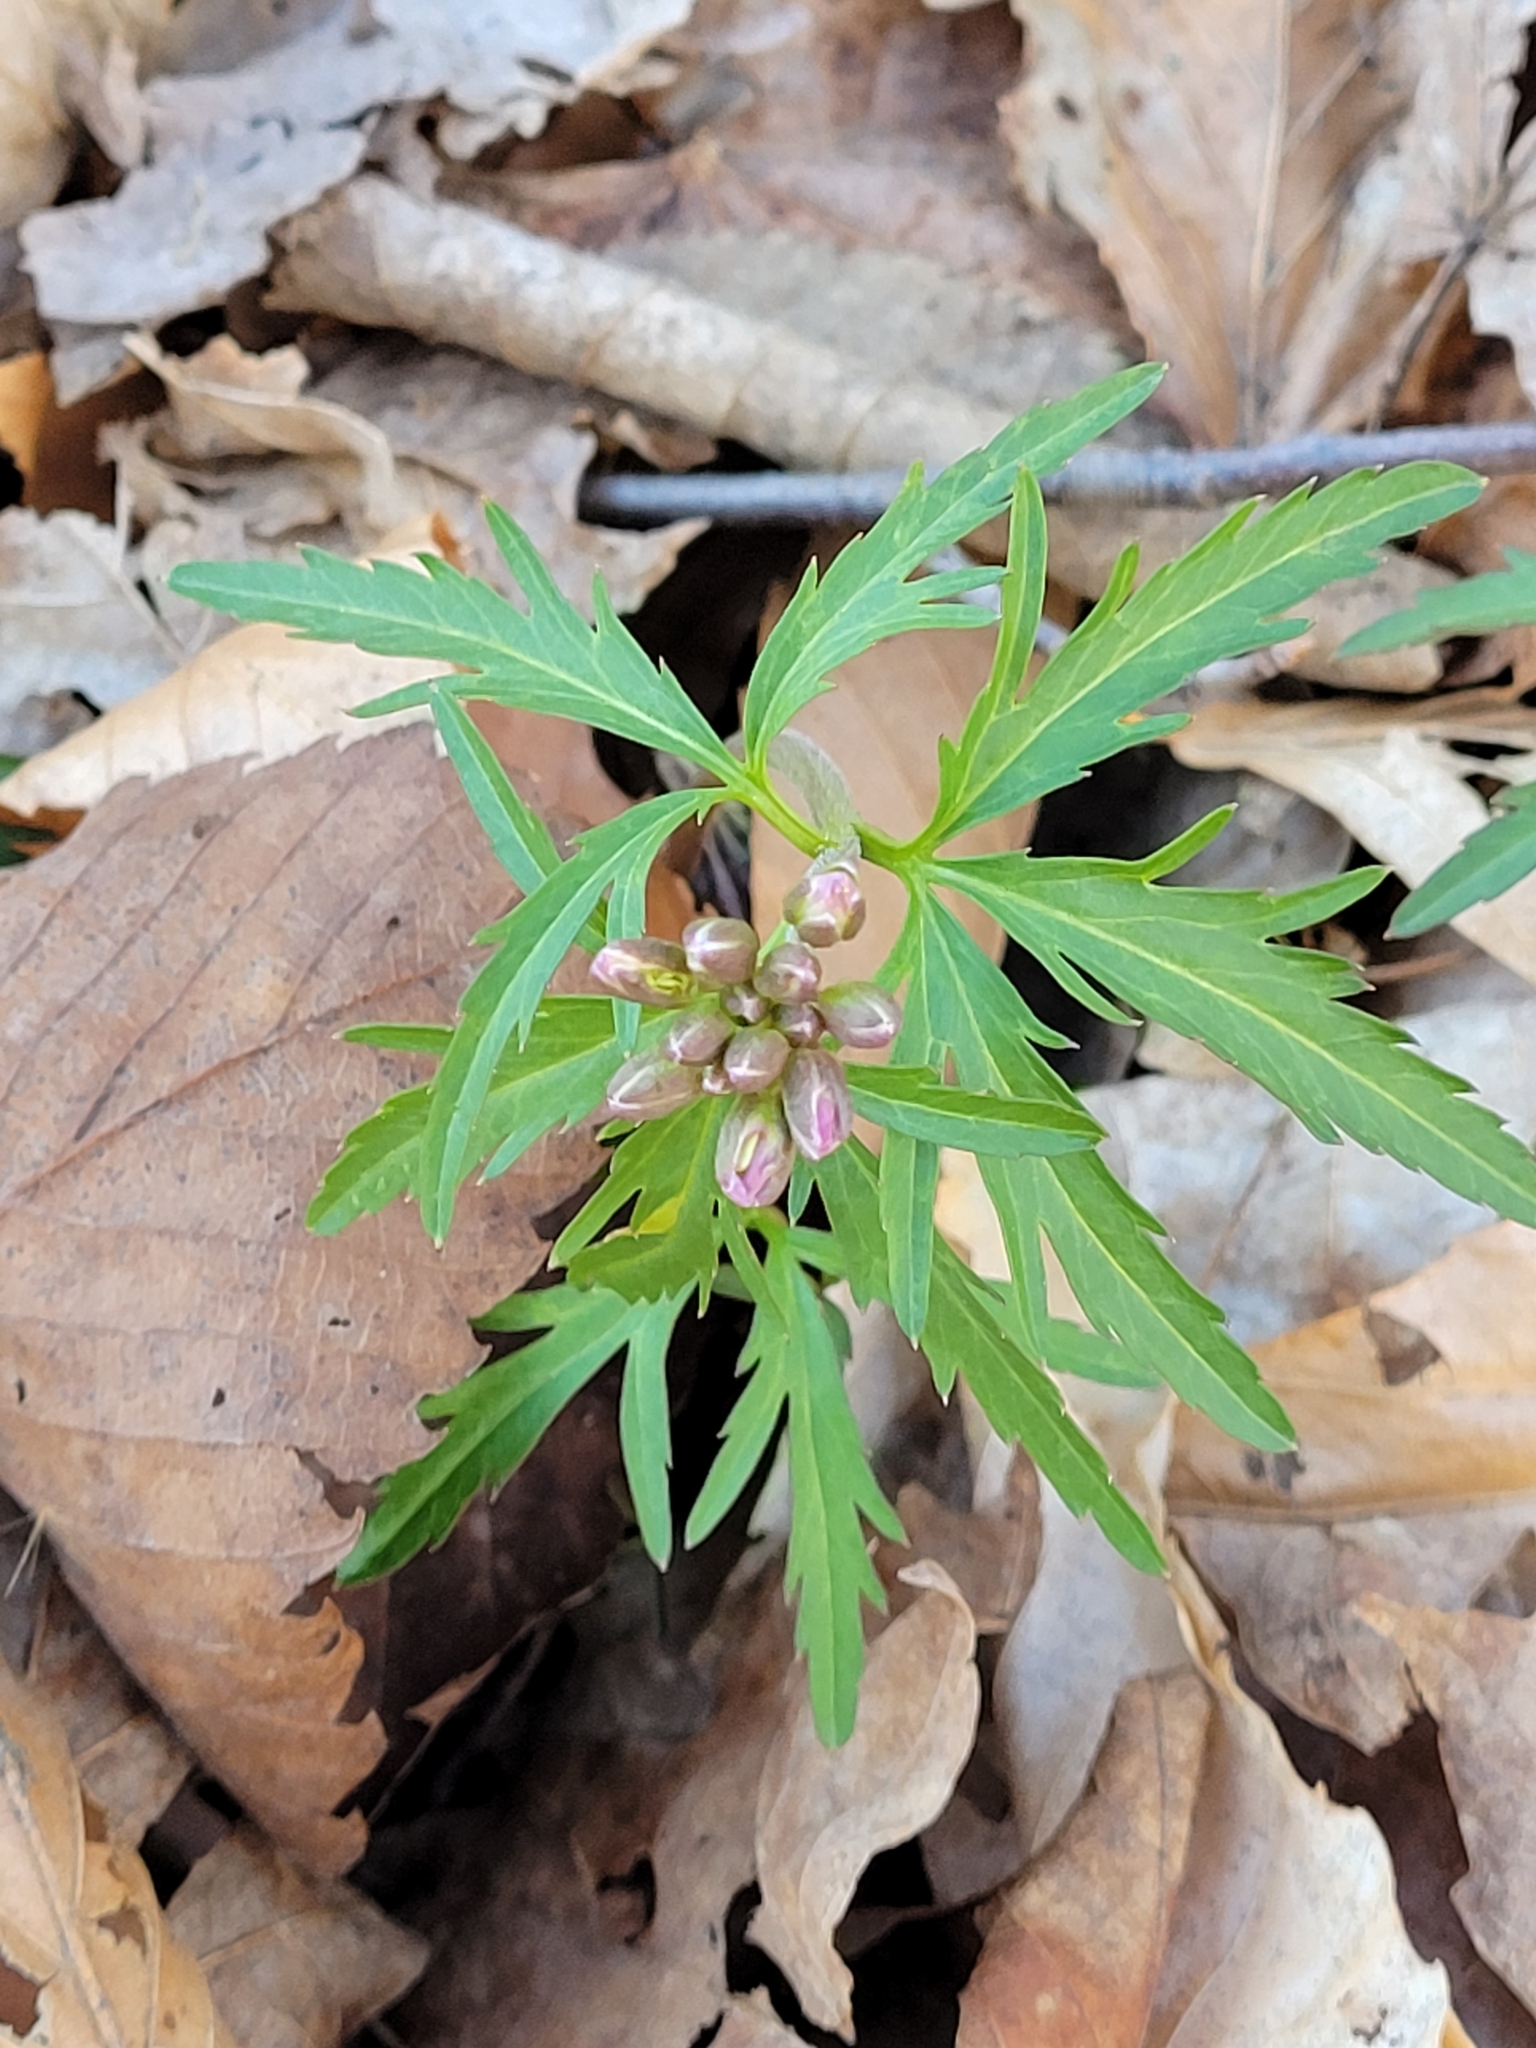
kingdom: Plantae
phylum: Tracheophyta
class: Magnoliopsida
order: Brassicales
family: Brassicaceae
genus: Cardamine
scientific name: Cardamine concatenata
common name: Cut-leaf toothcup
